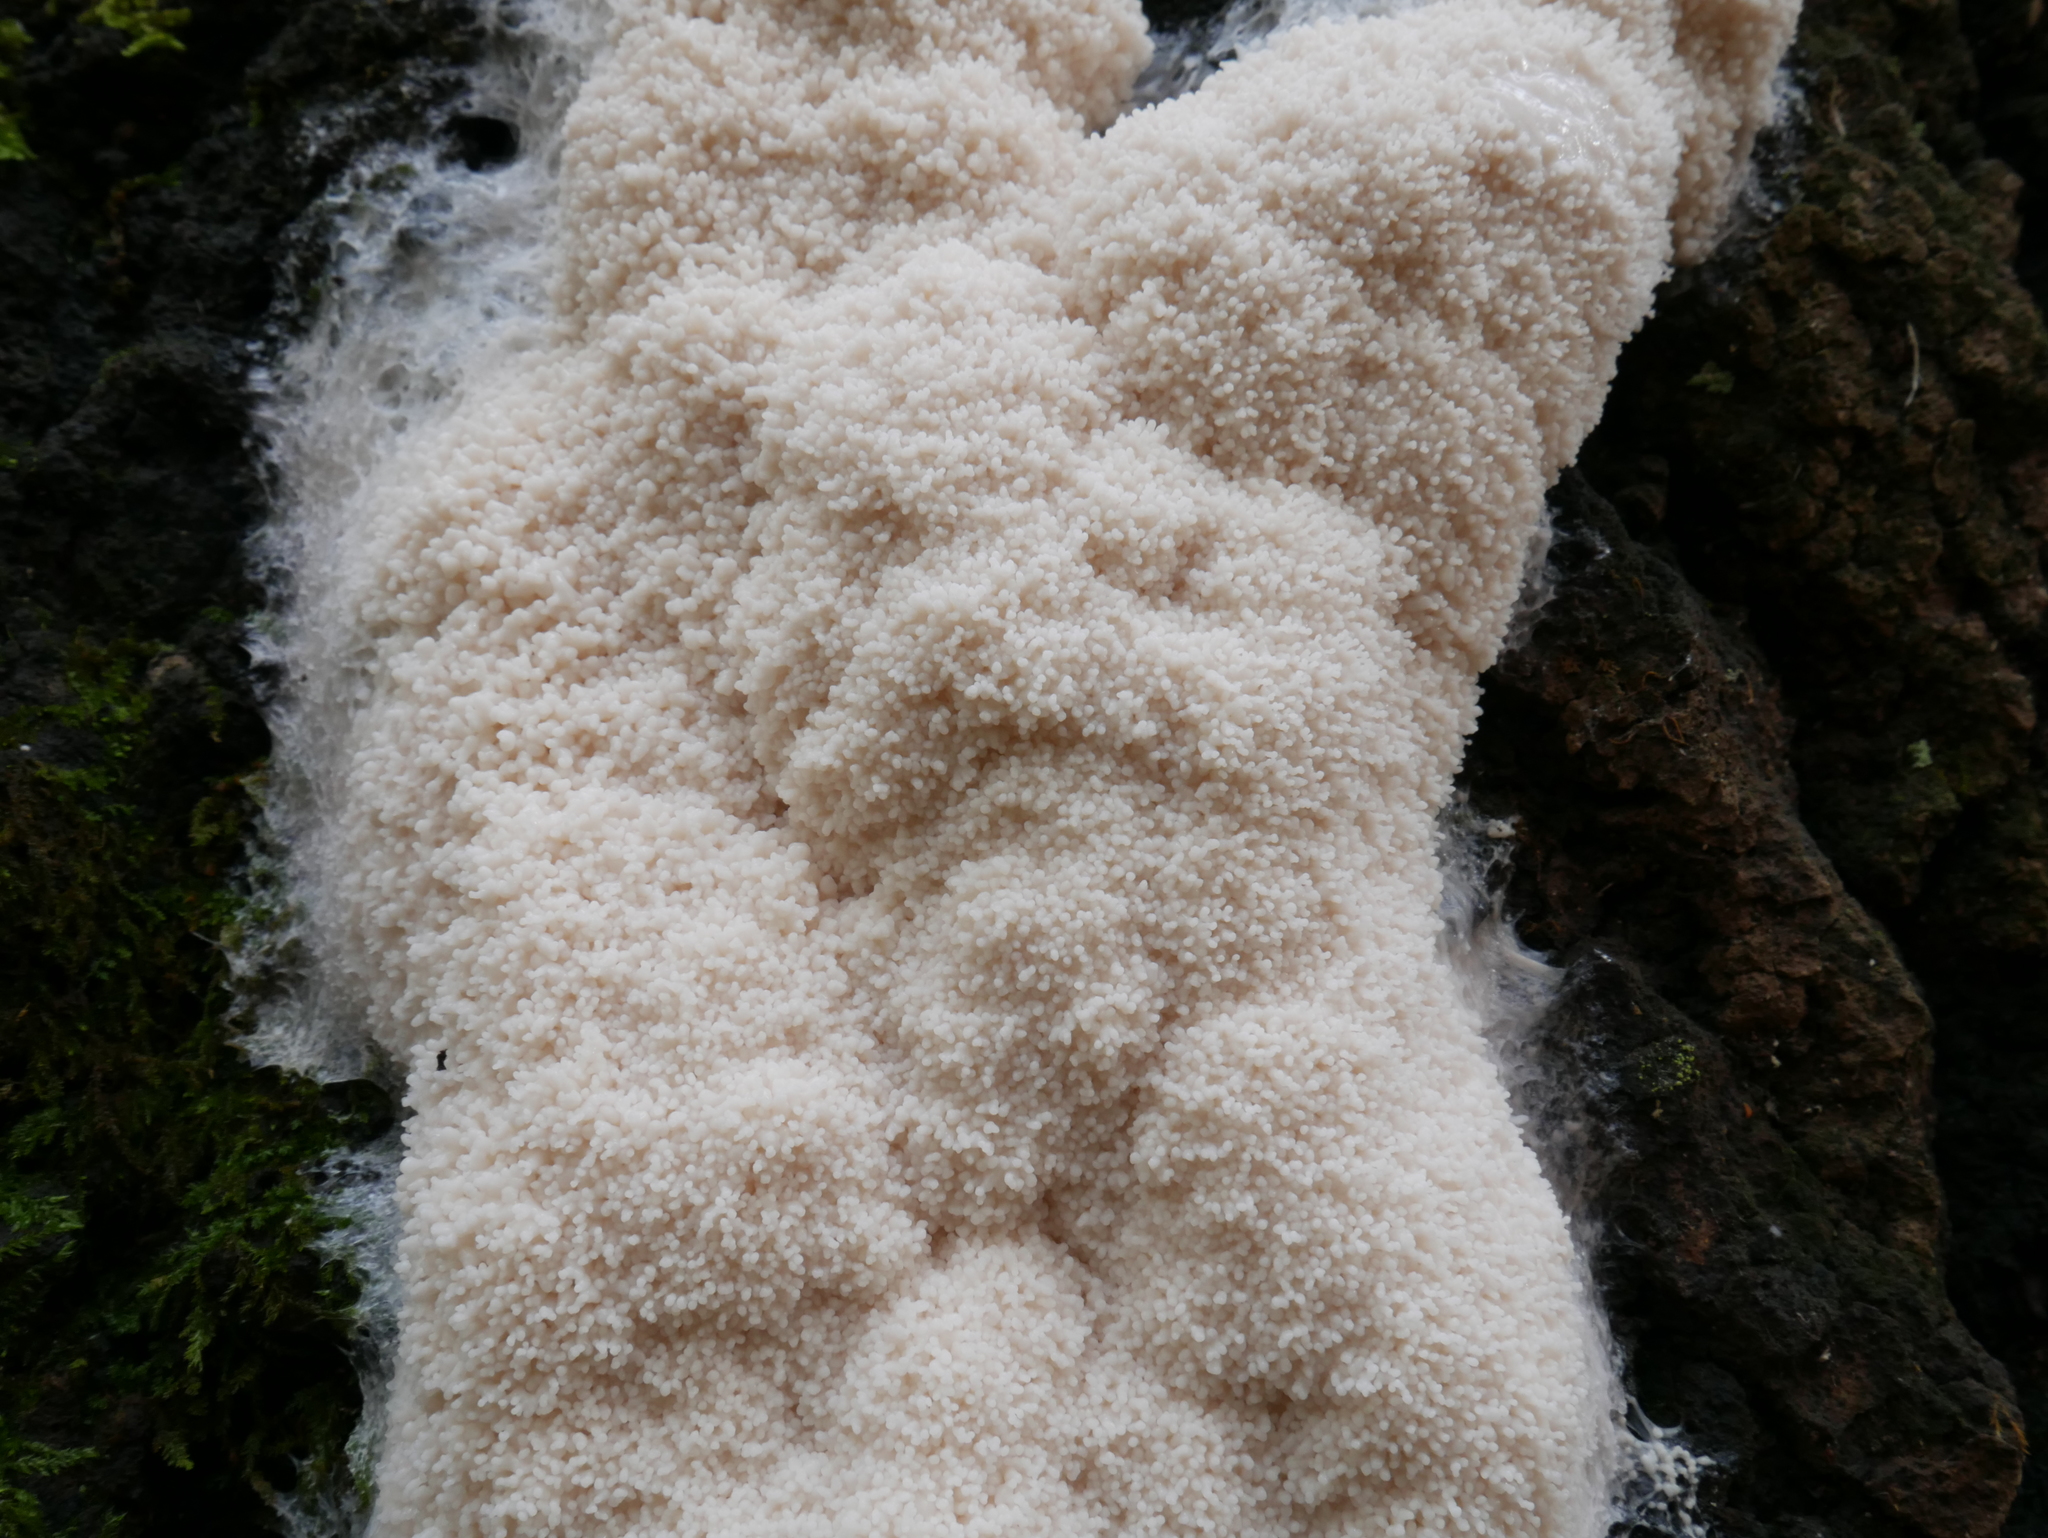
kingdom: Protozoa
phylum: Mycetozoa
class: Myxomycetes
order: Stemonitidales
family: Stemonitidaceae
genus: Brefeldia
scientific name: Brefeldia maxima
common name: Tapioca slime mold
